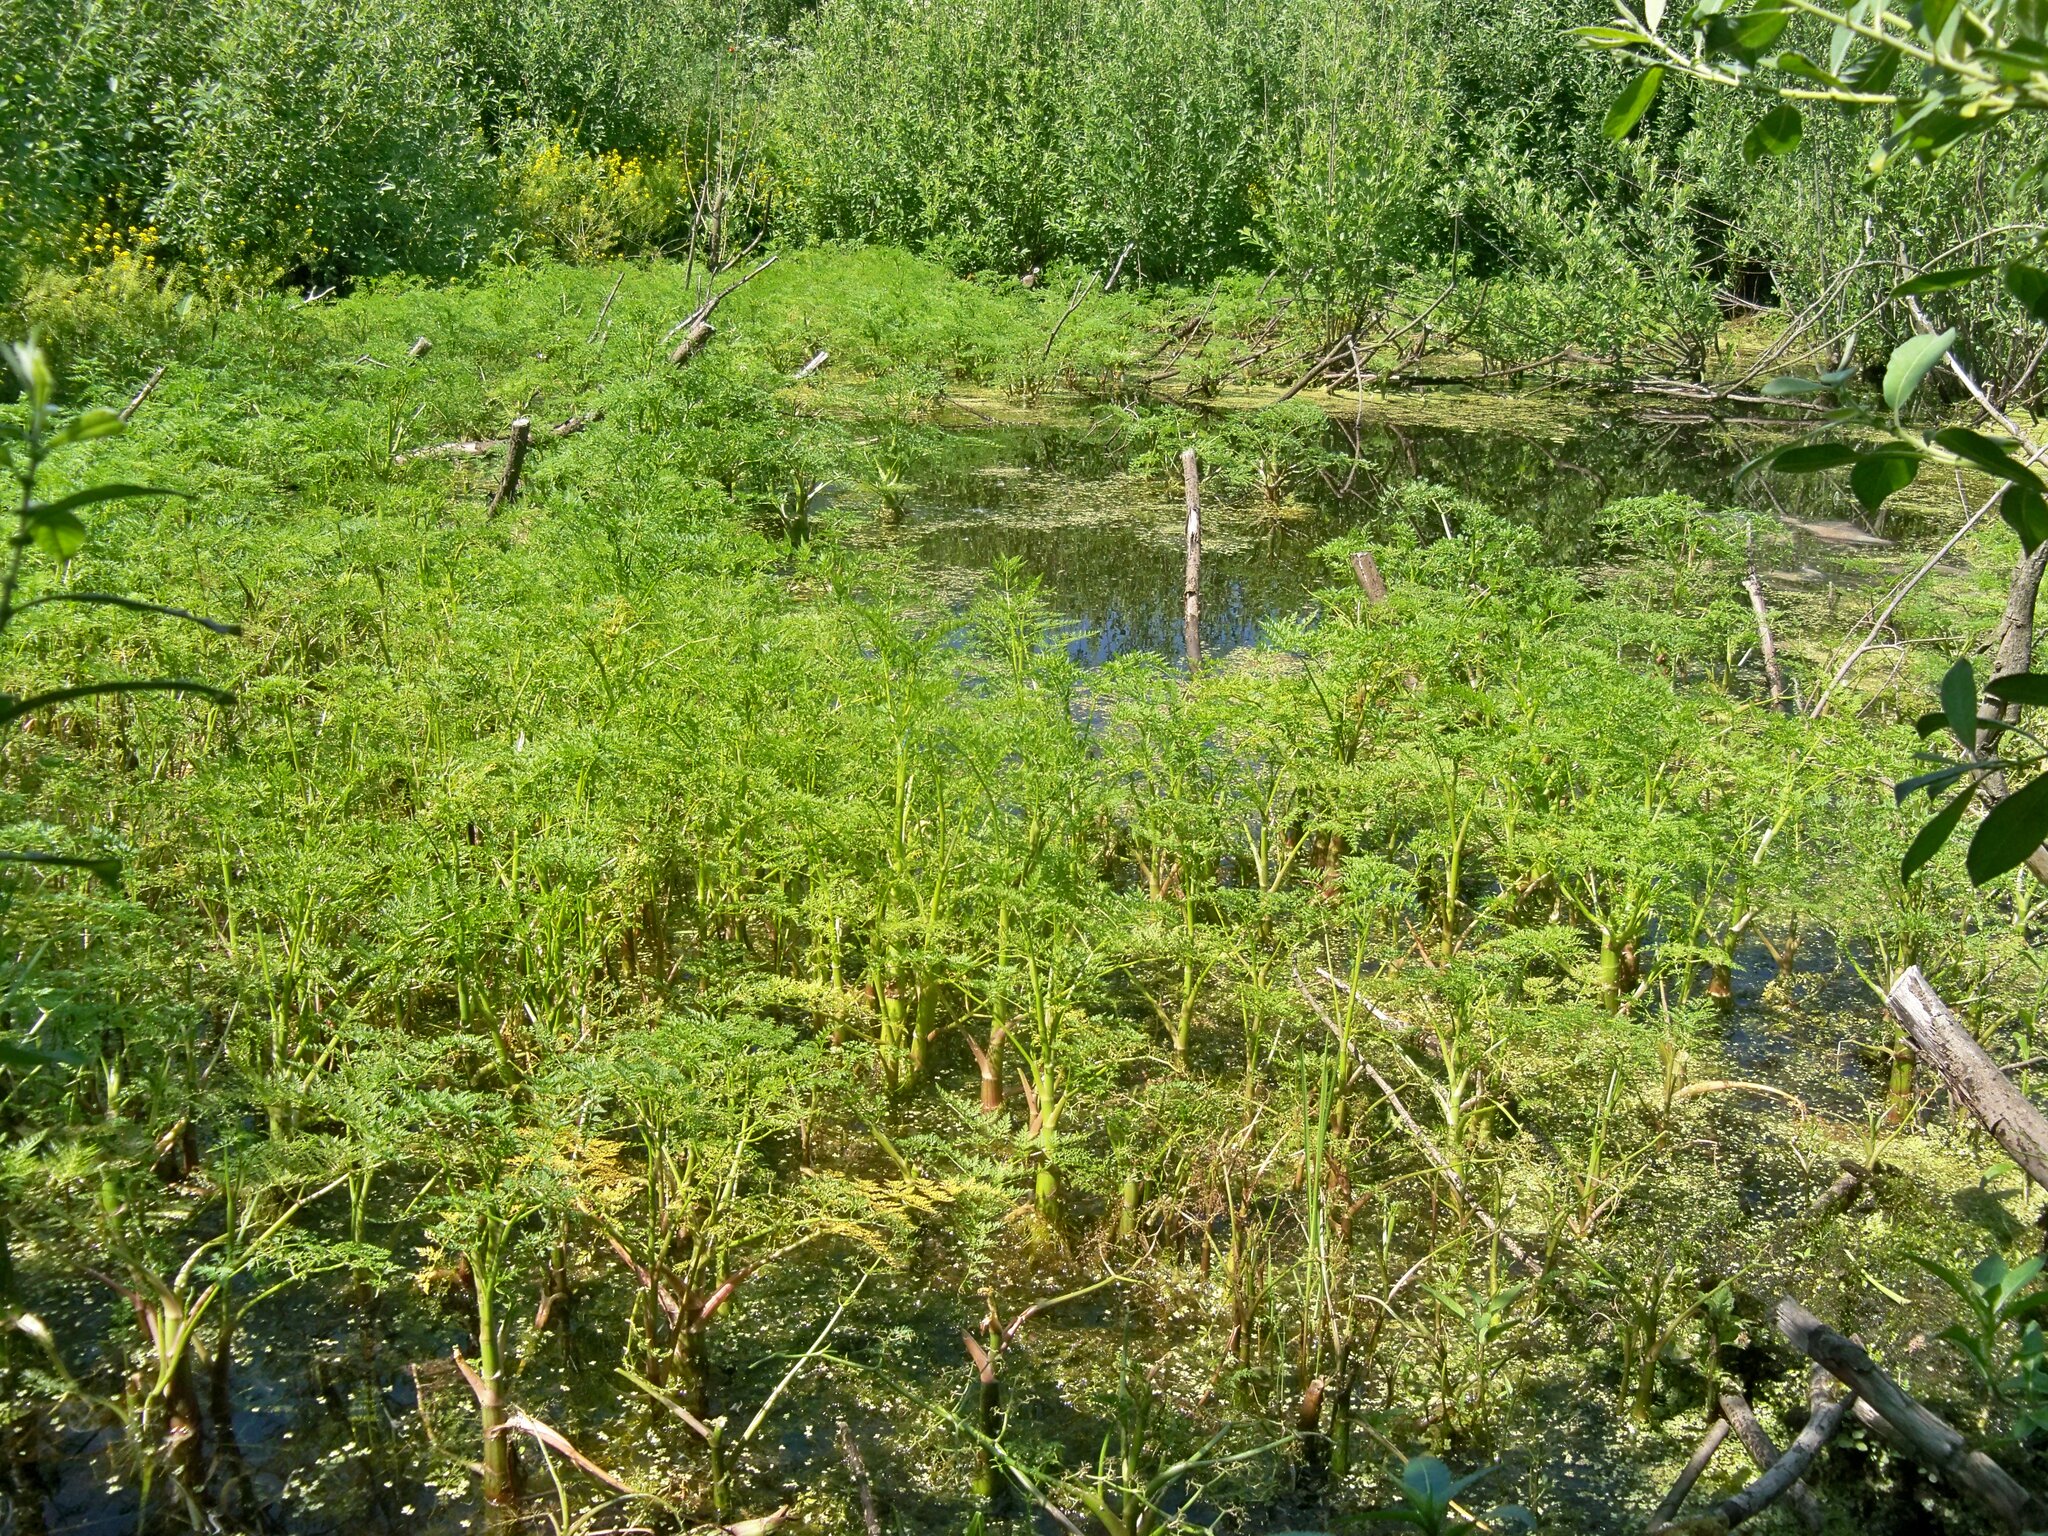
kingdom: Plantae
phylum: Tracheophyta
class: Magnoliopsida
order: Apiales
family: Apiaceae
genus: Oenanthe
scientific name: Oenanthe aquatica
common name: Fine-leaved water-dropwort
